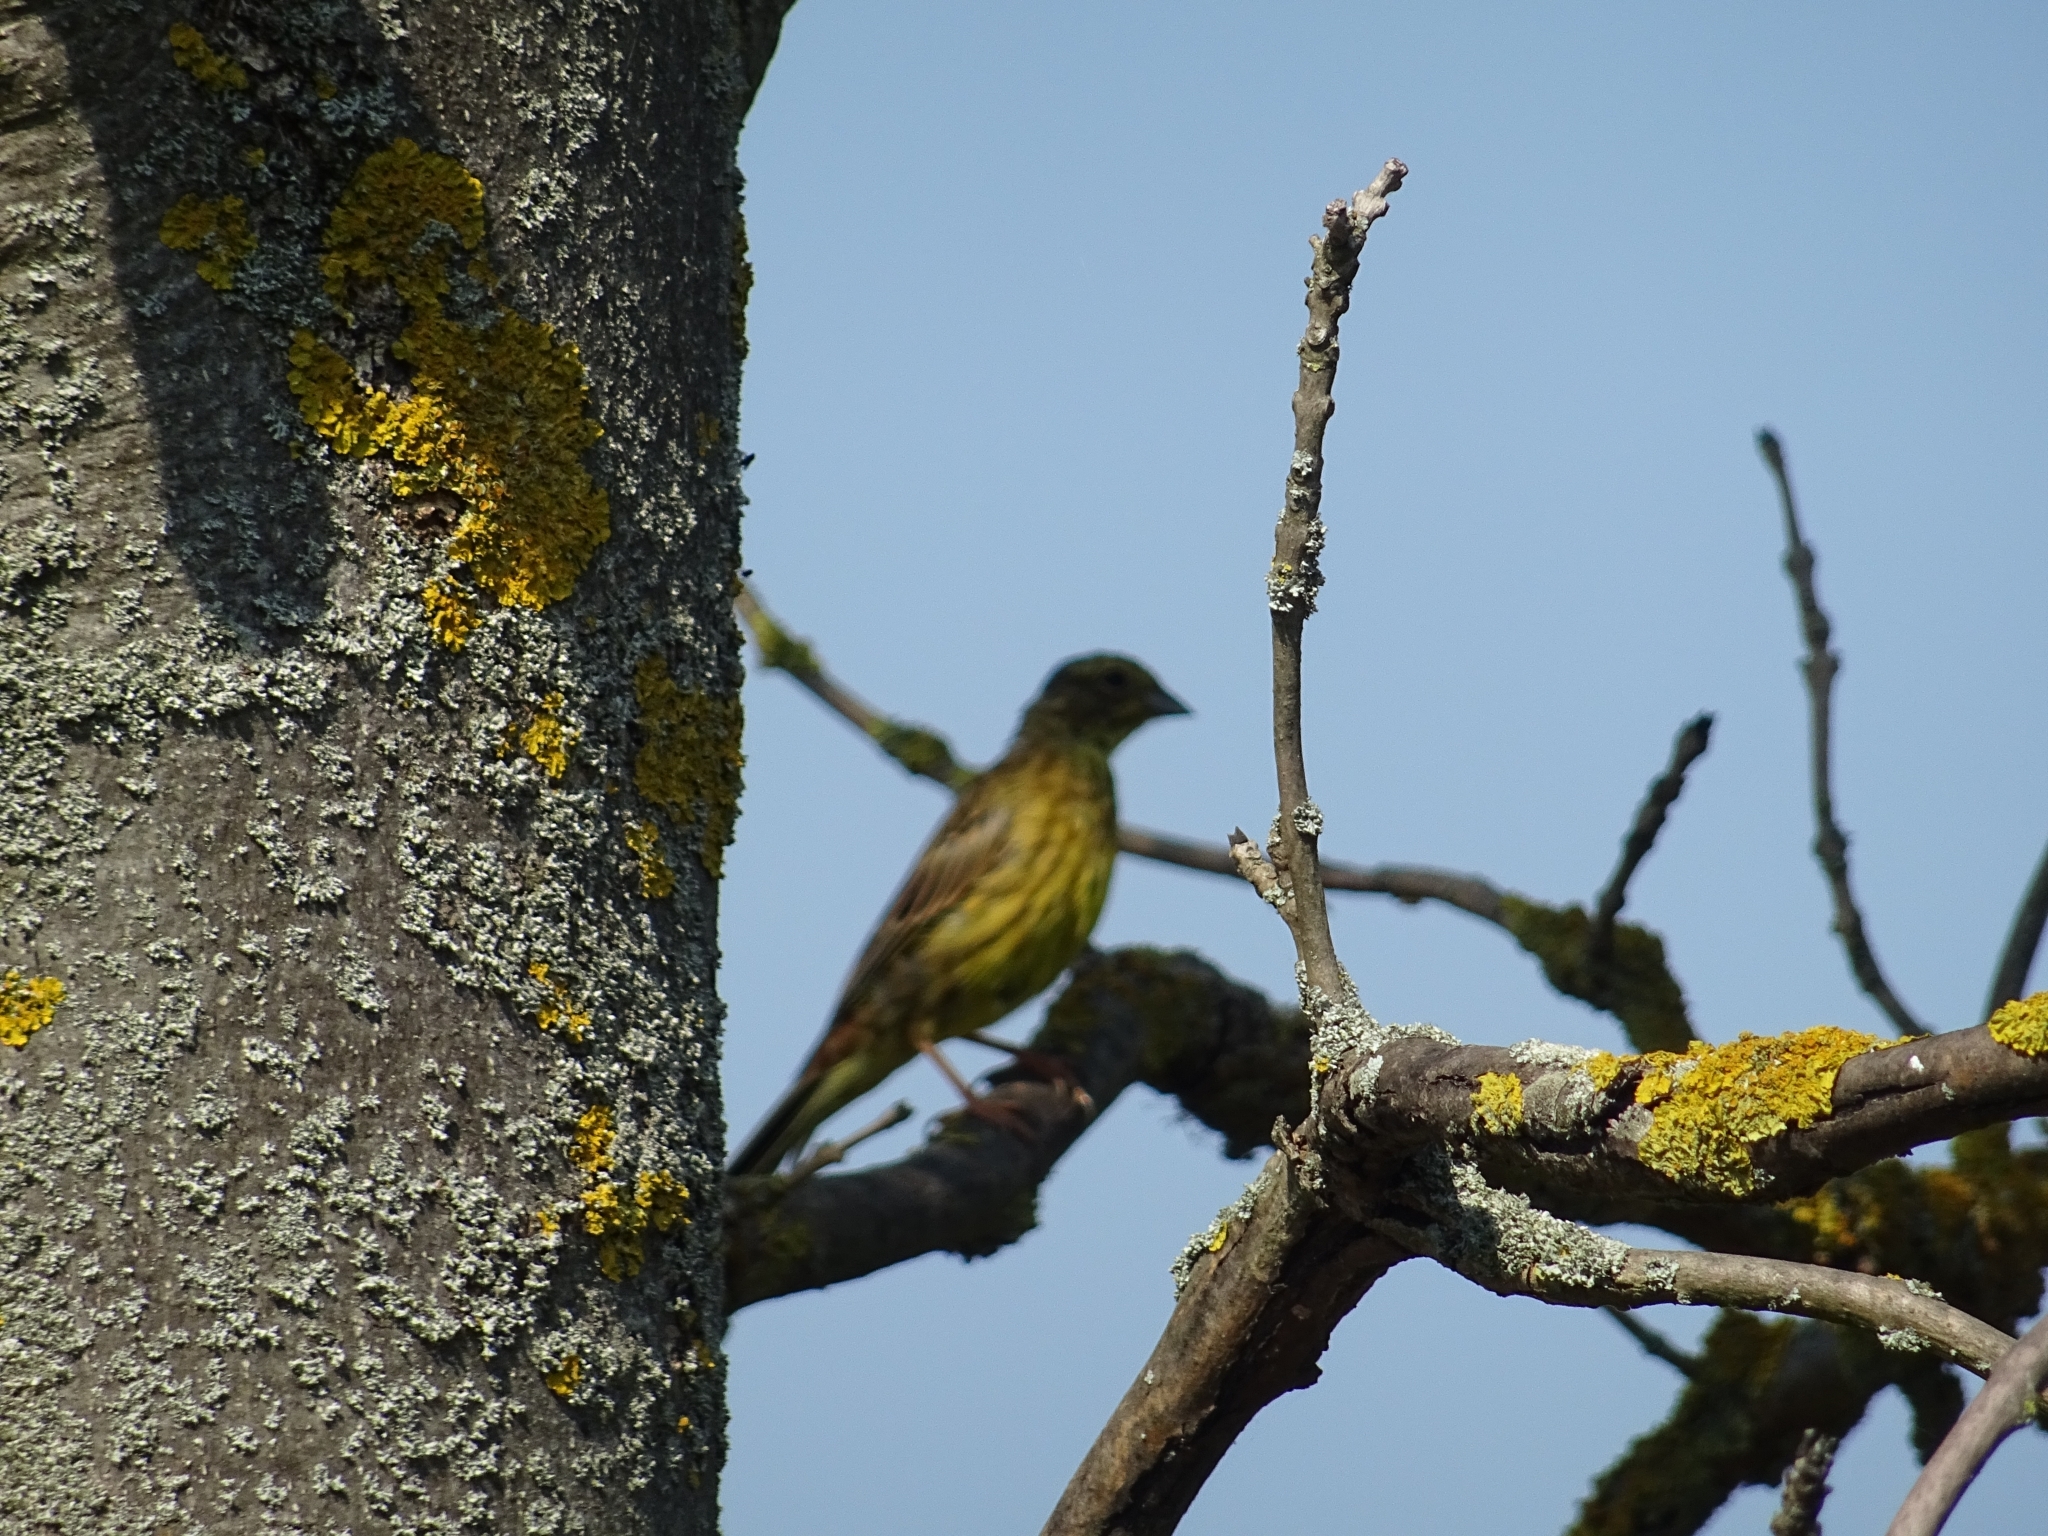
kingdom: Animalia
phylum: Chordata
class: Aves
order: Passeriformes
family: Emberizidae
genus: Emberiza
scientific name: Emberiza citrinella
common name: Yellowhammer
